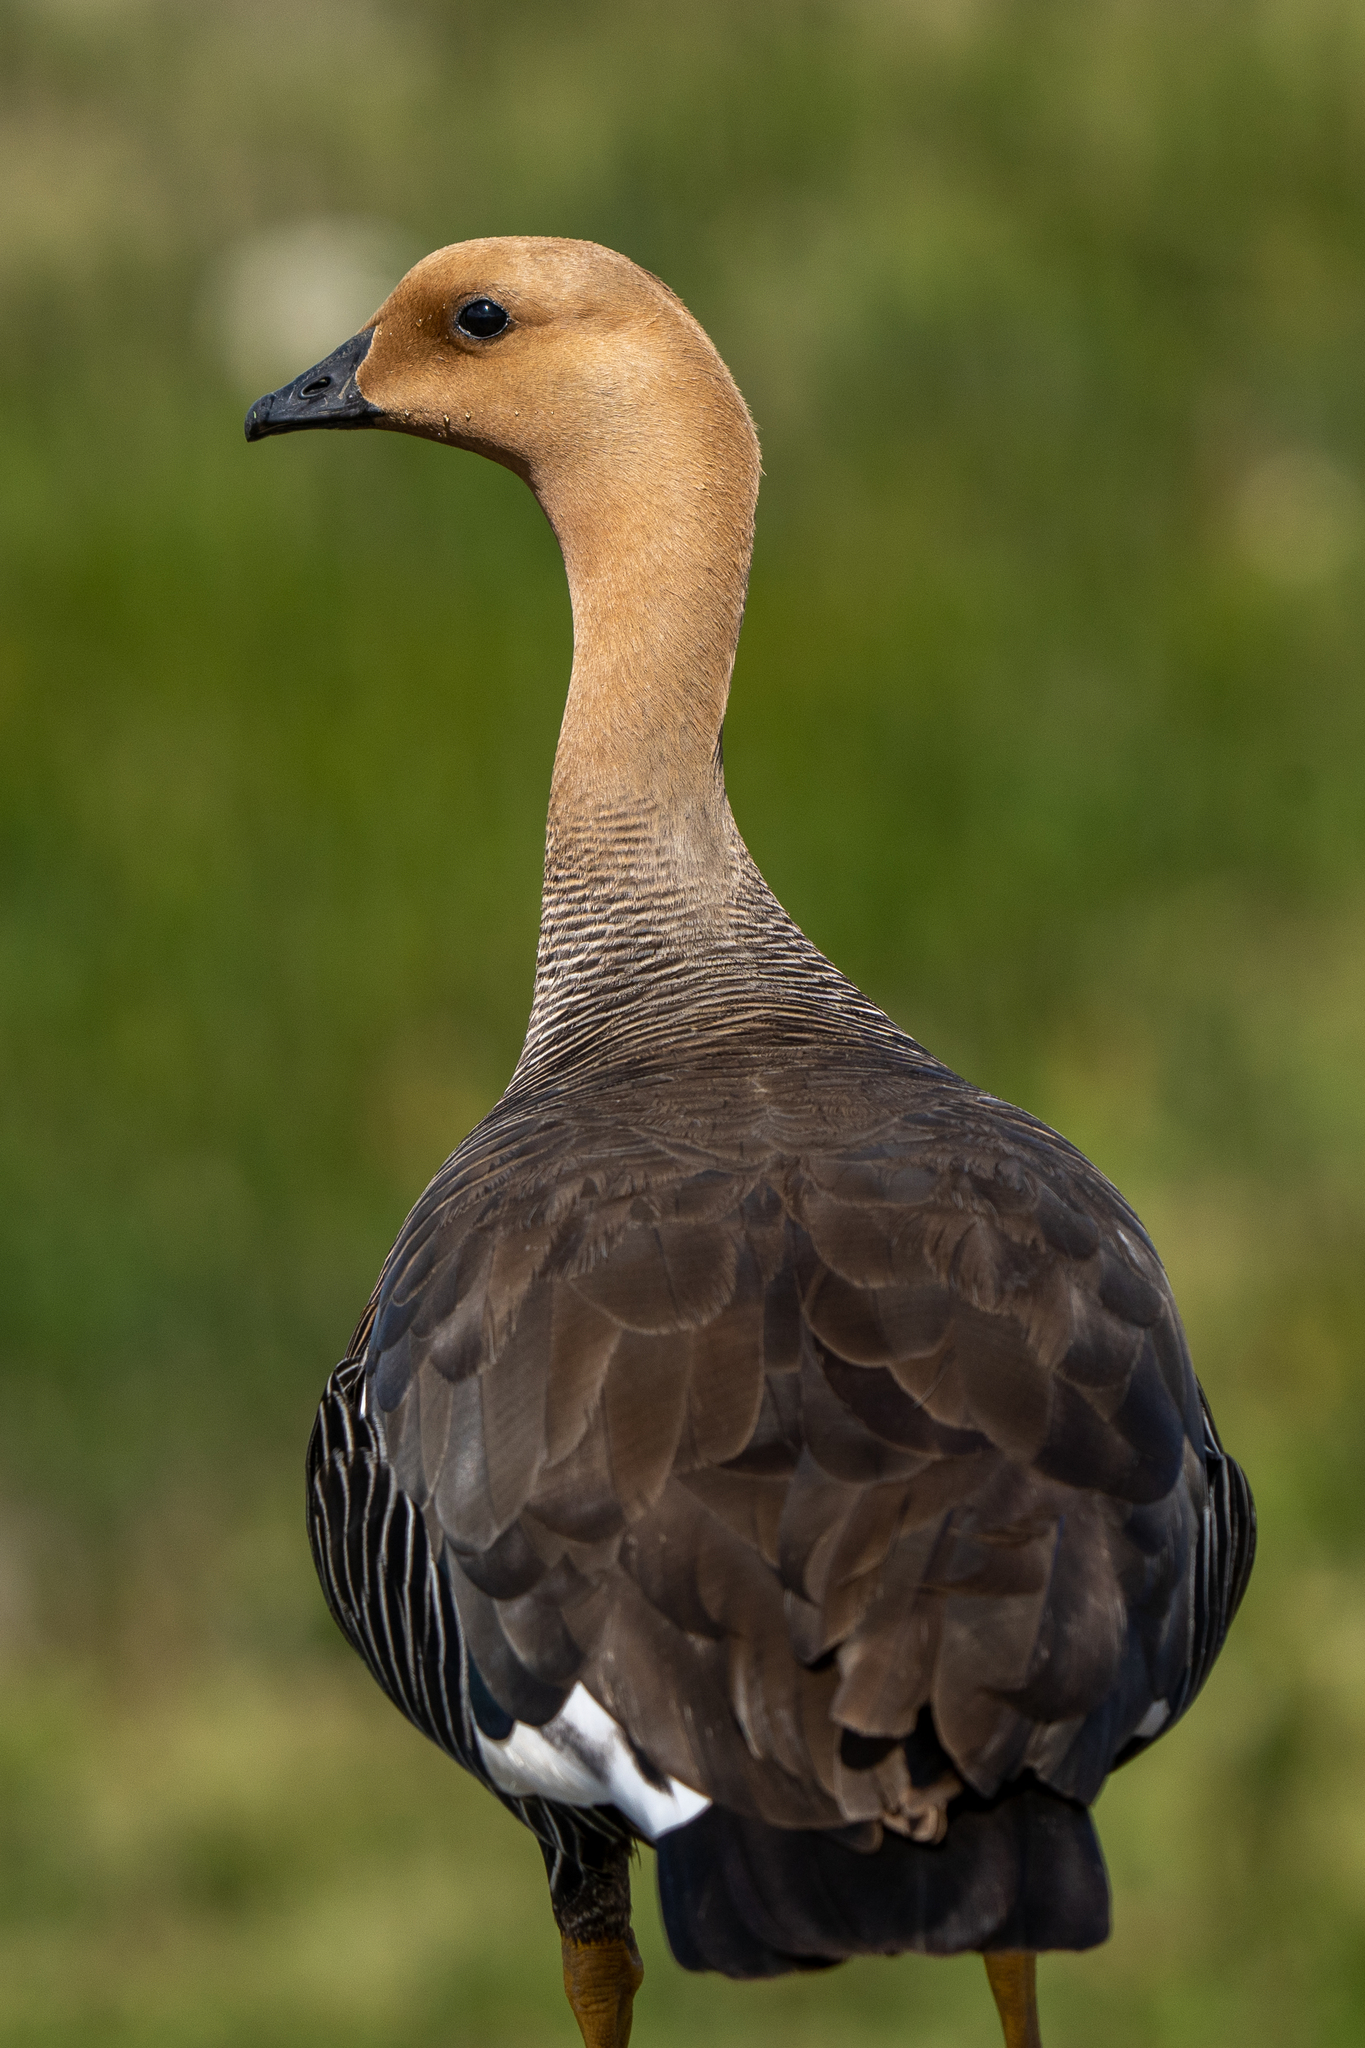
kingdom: Animalia
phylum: Chordata
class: Aves
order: Anseriformes
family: Anatidae
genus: Chloephaga
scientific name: Chloephaga picta
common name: Upland goose
